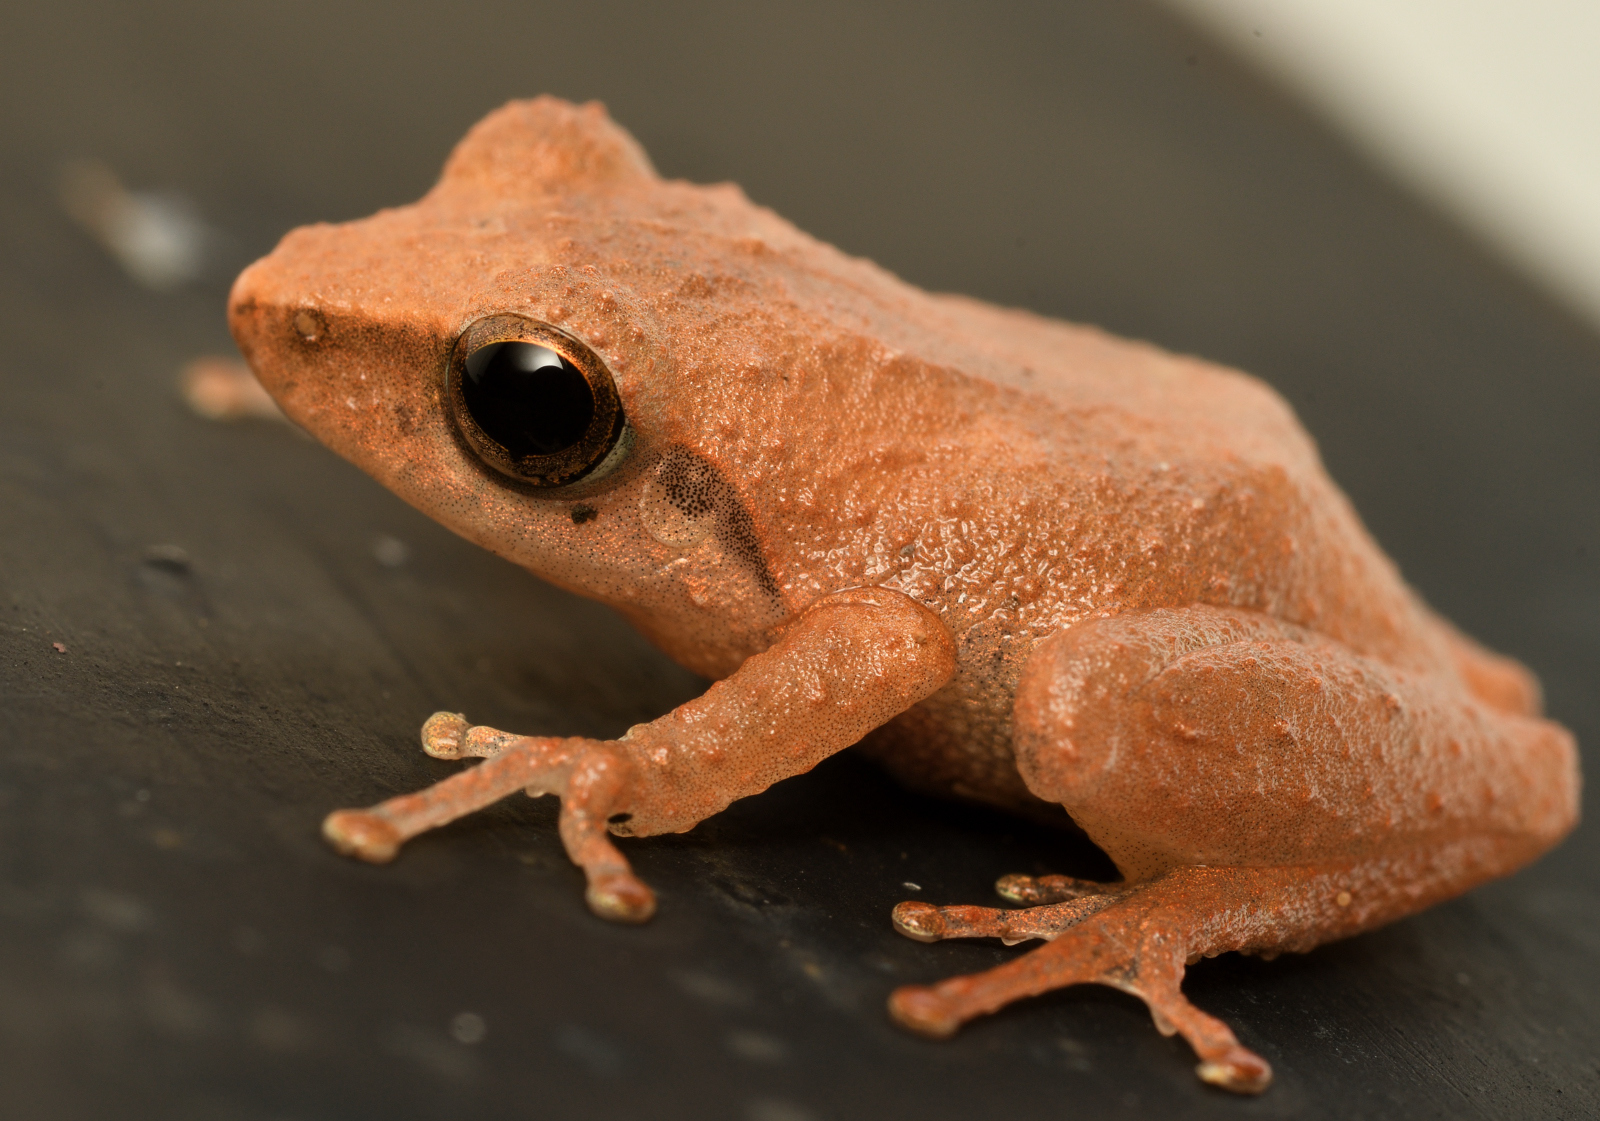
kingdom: Animalia
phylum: Chordata
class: Amphibia
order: Anura
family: Rhacophoridae
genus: Pseudophilautus
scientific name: Pseudophilautus wynaadensis
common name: Dark-eared bush frog
